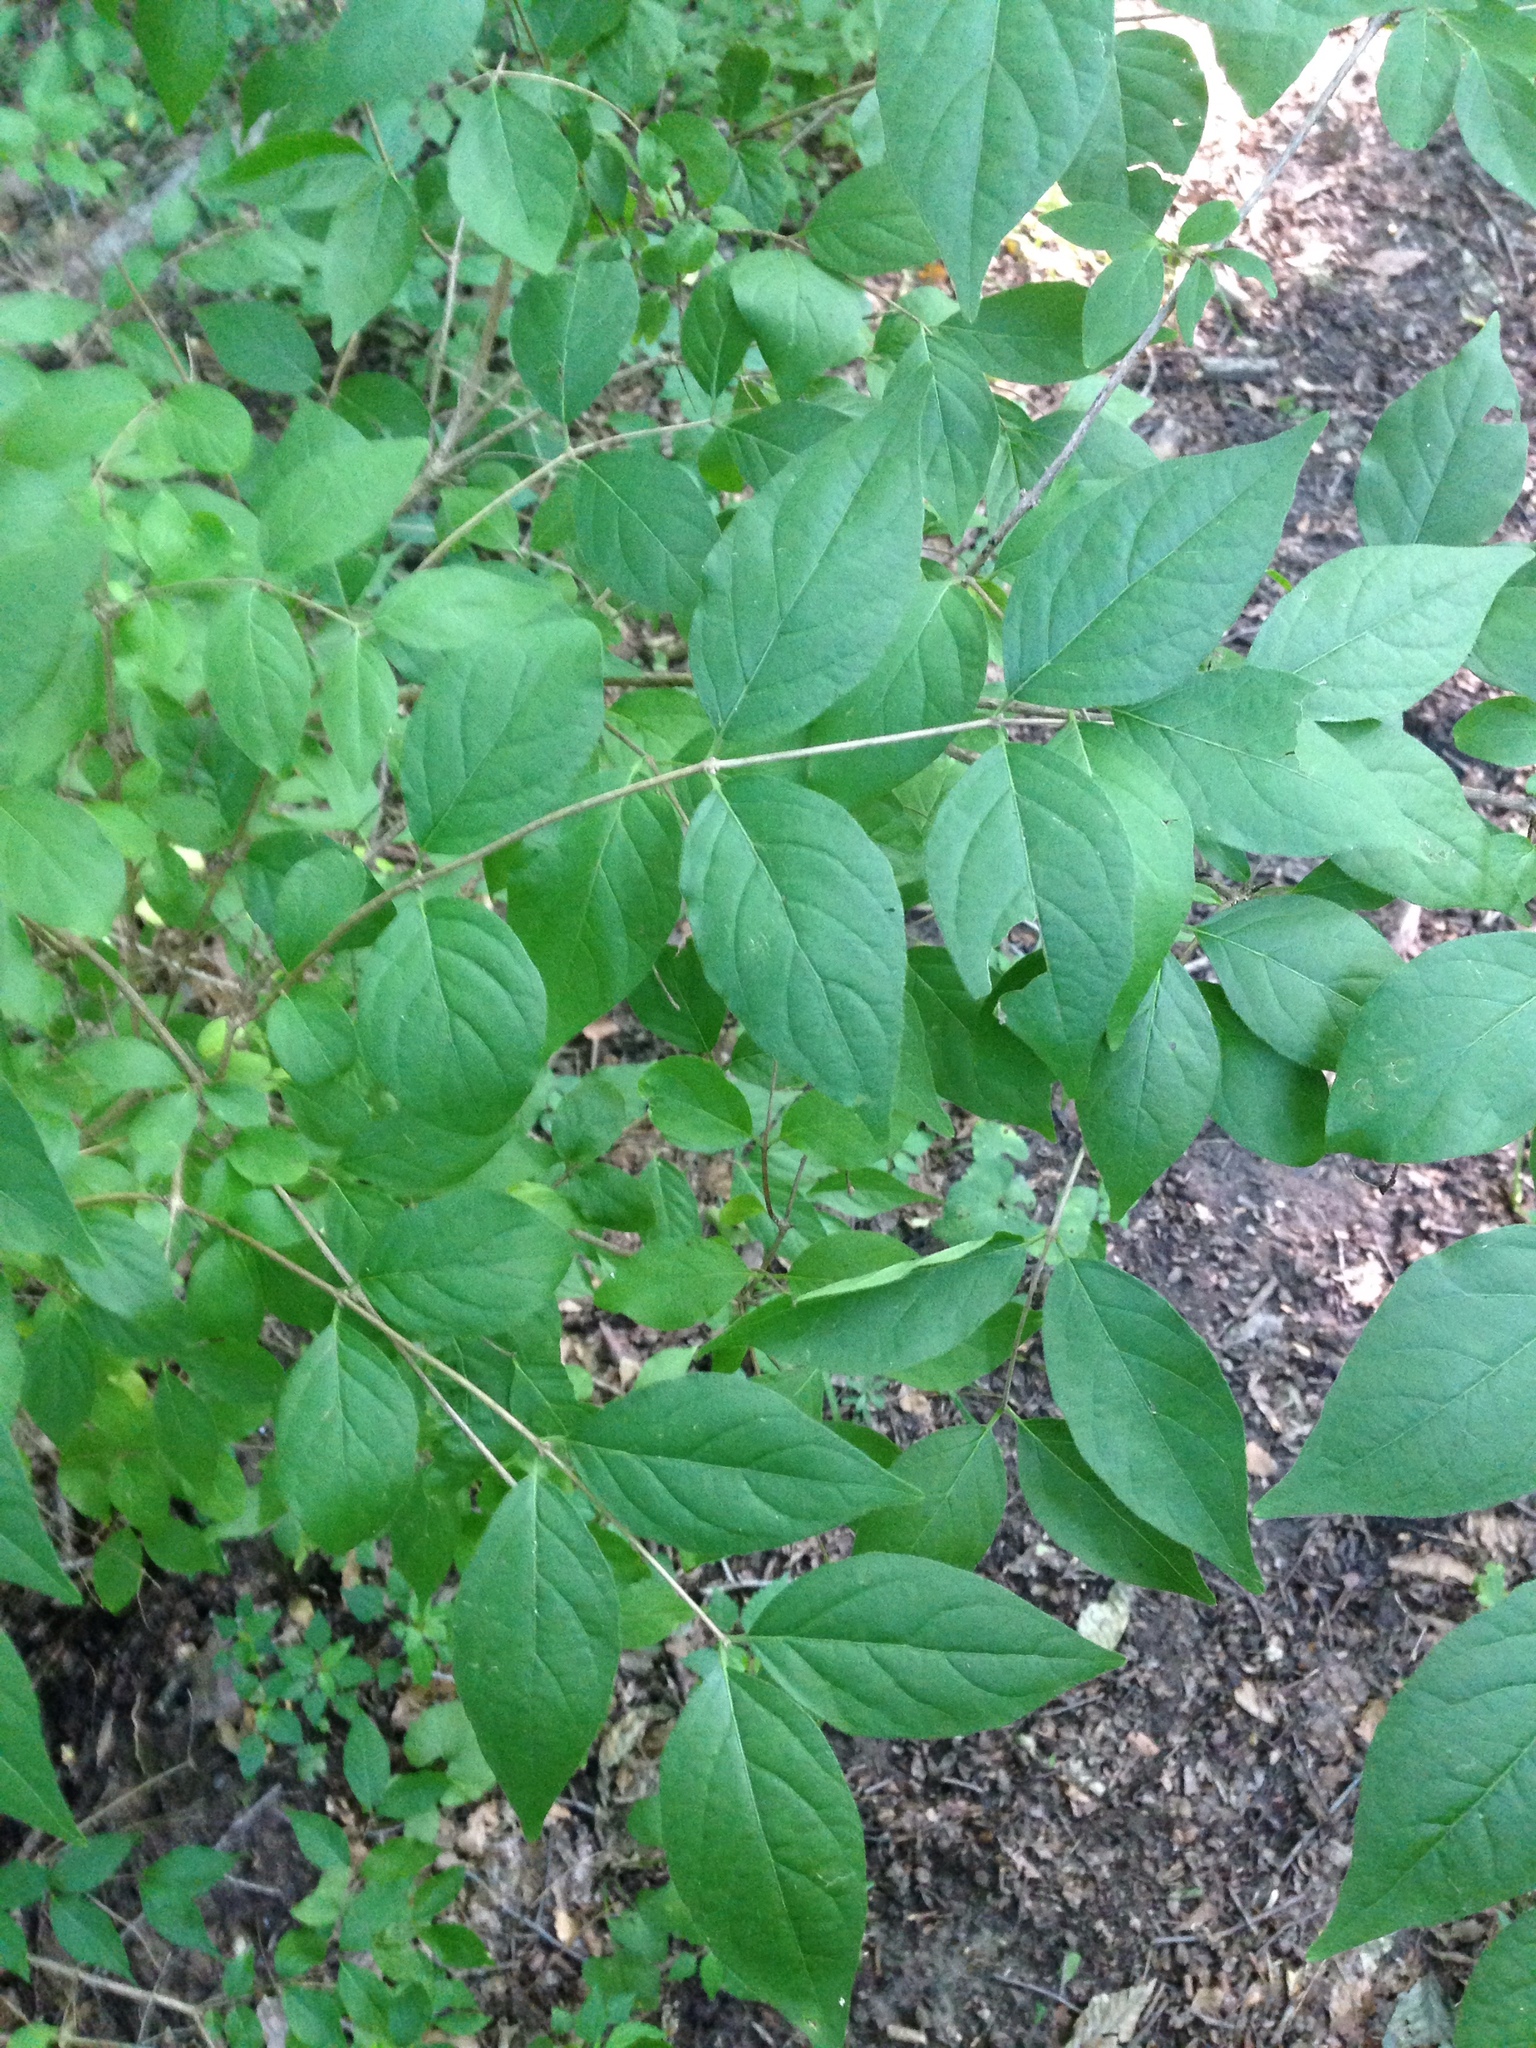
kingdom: Plantae
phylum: Tracheophyta
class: Magnoliopsida
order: Dipsacales
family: Caprifoliaceae
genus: Lonicera
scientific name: Lonicera maackii
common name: Amur honeysuckle
